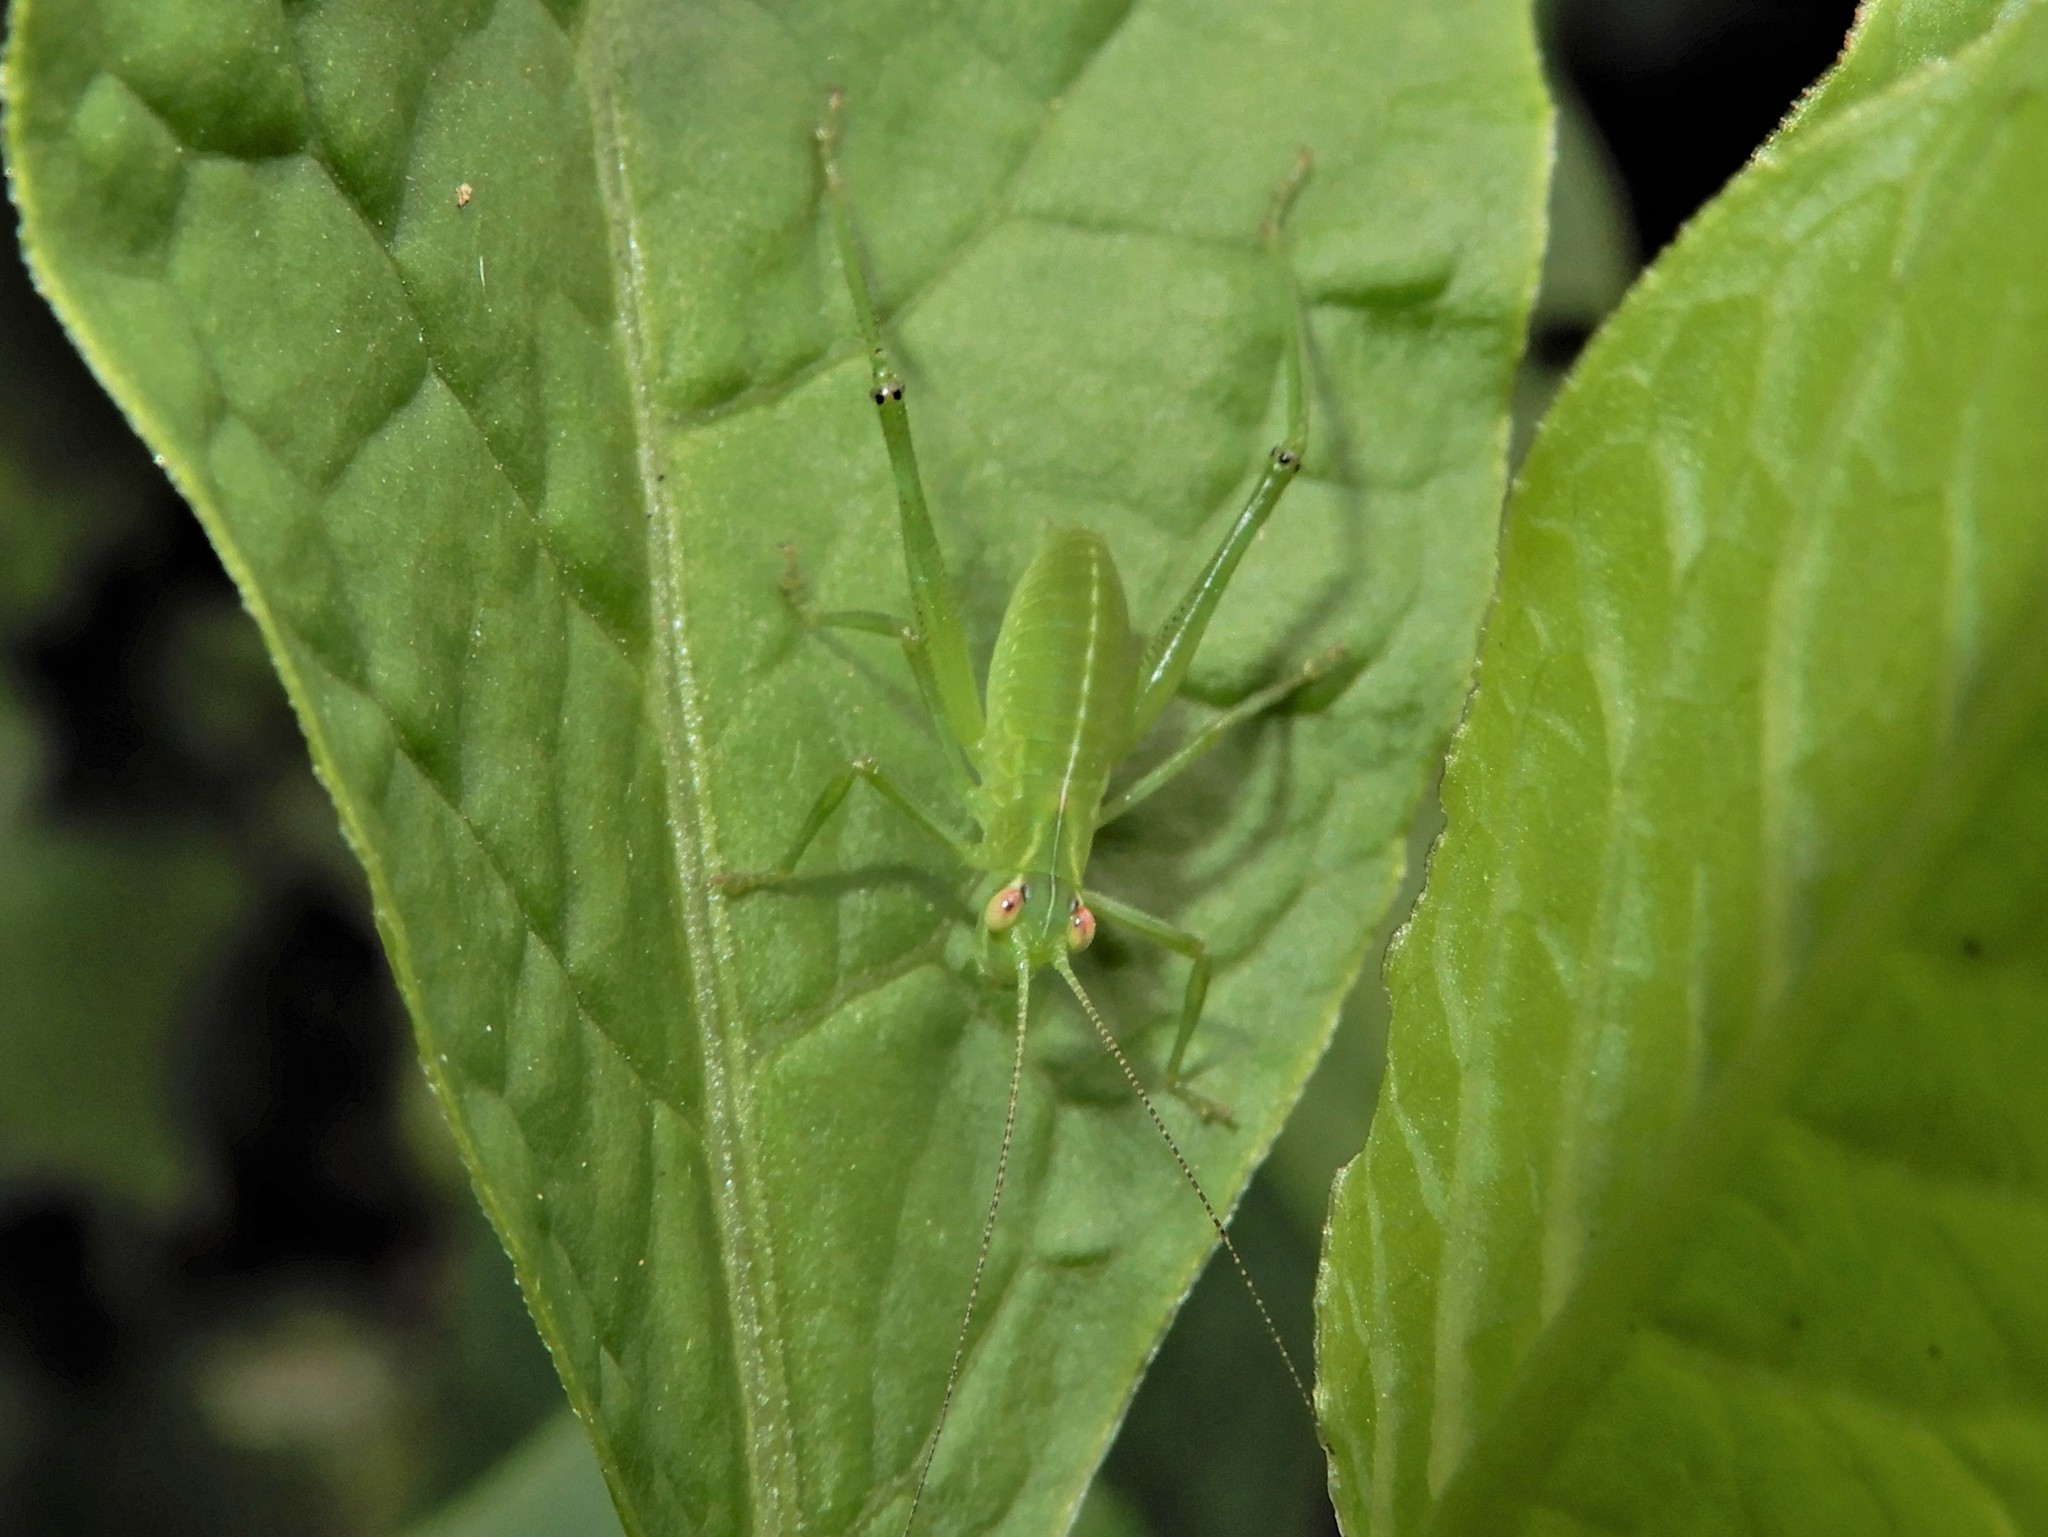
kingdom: Animalia
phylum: Arthropoda
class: Insecta
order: Orthoptera
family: Tettigoniidae
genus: Caedicia
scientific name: Caedicia simplex
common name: Common garden katydid
